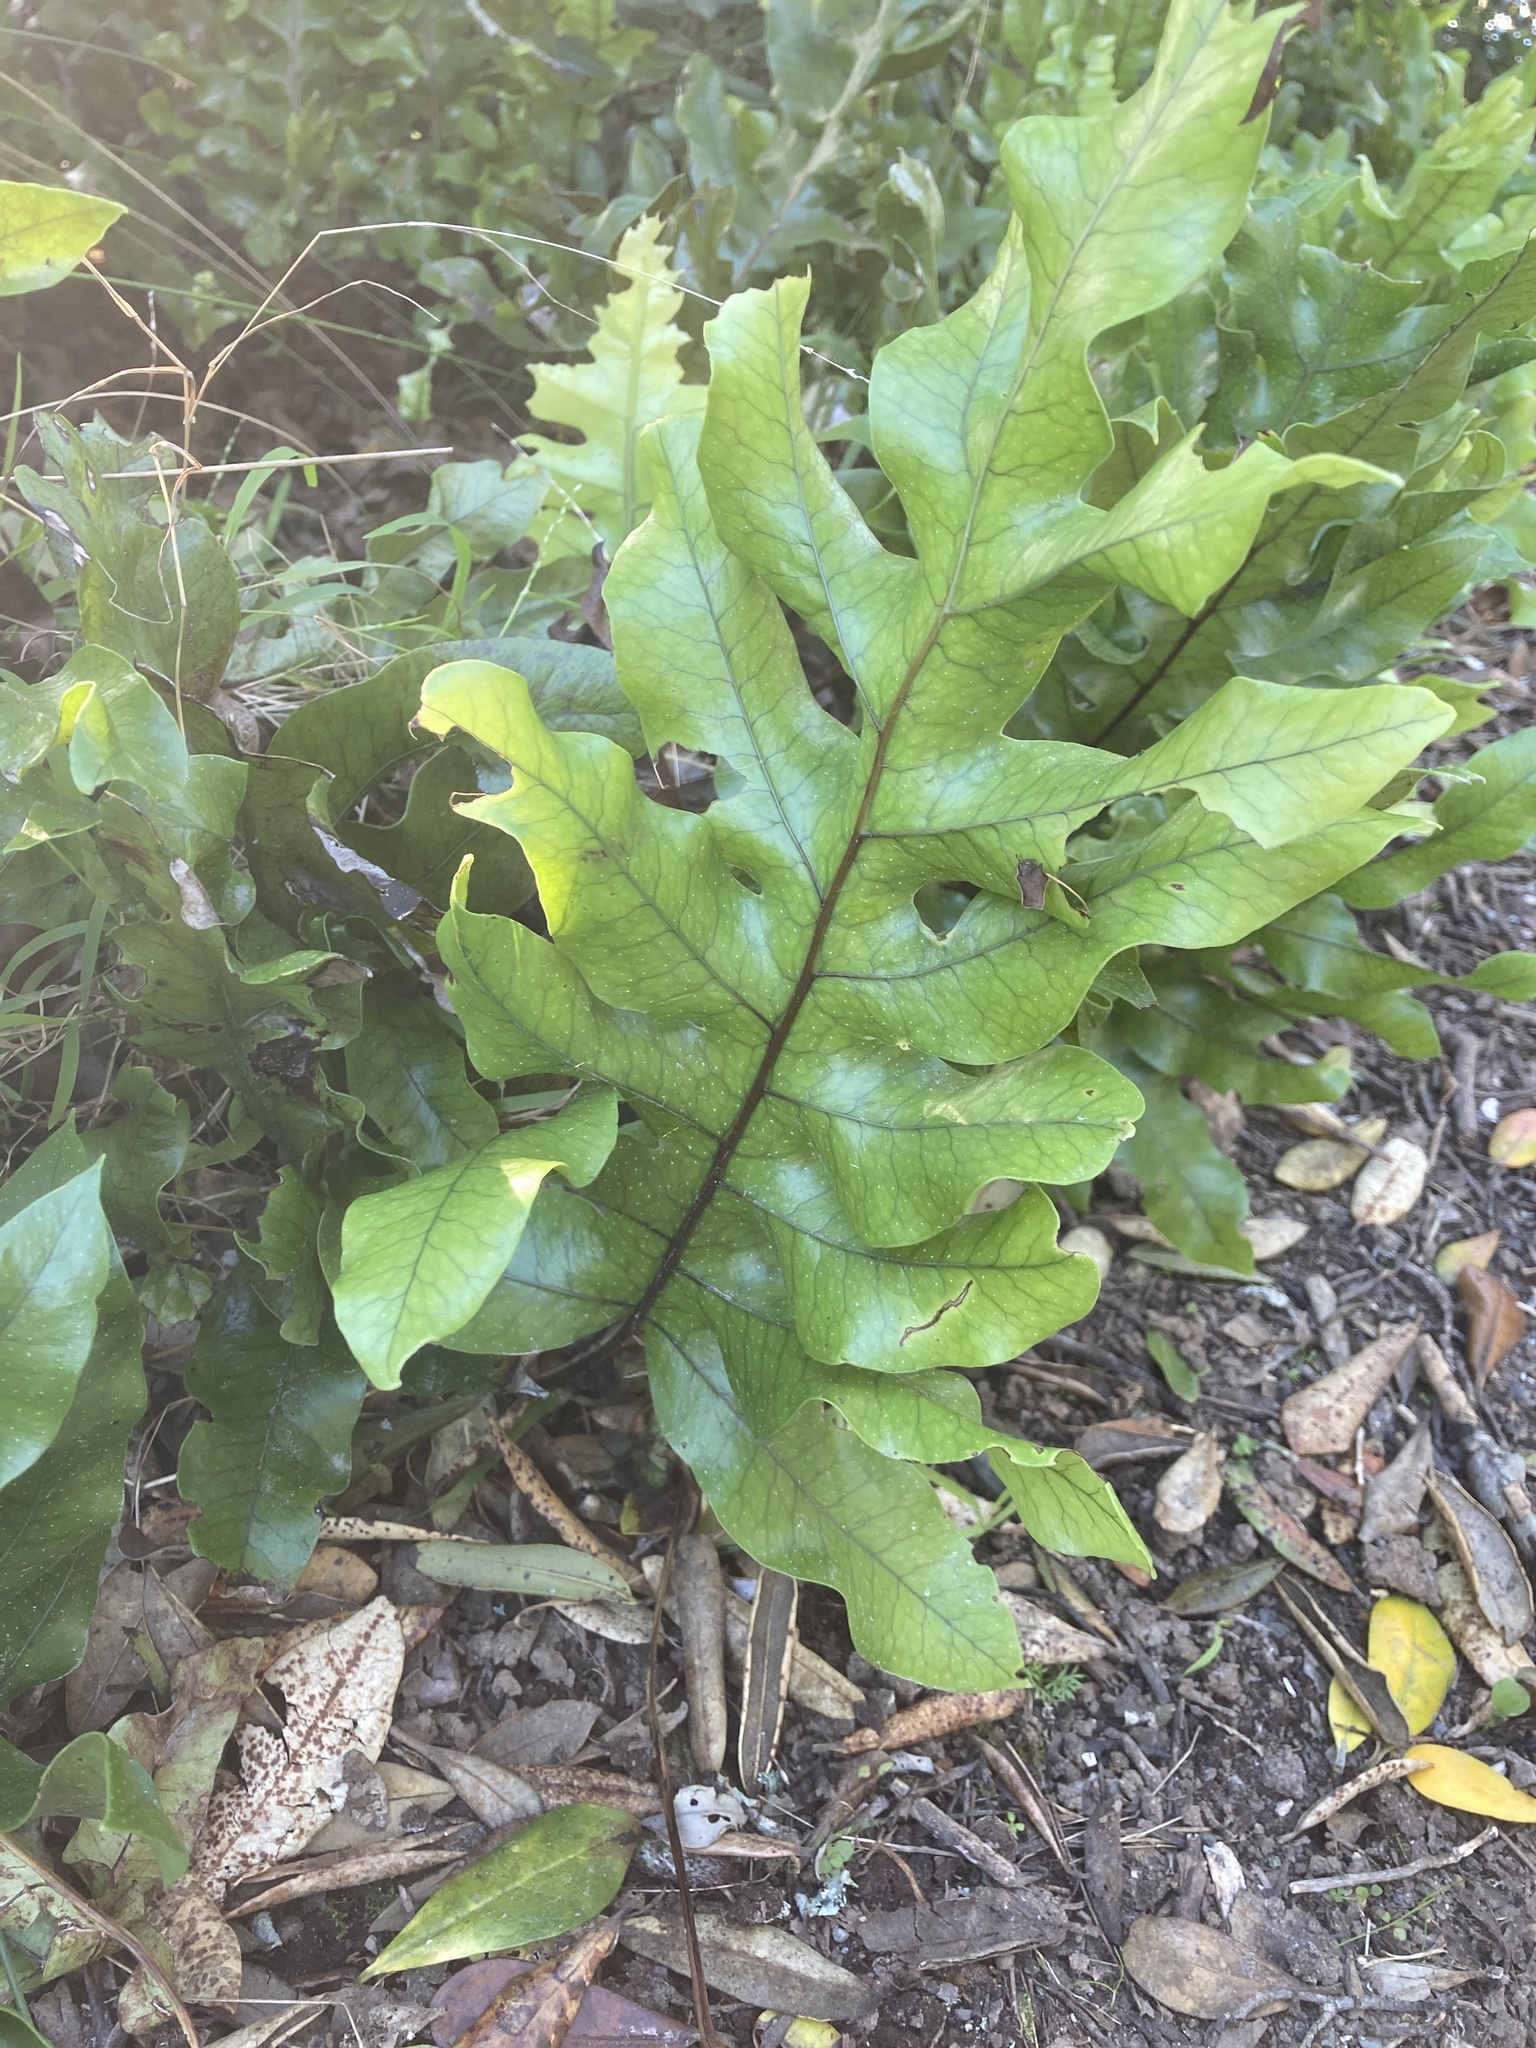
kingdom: Plantae
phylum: Tracheophyta
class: Polypodiopsida
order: Polypodiales
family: Polypodiaceae
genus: Lecanopteris
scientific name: Lecanopteris pustulata
